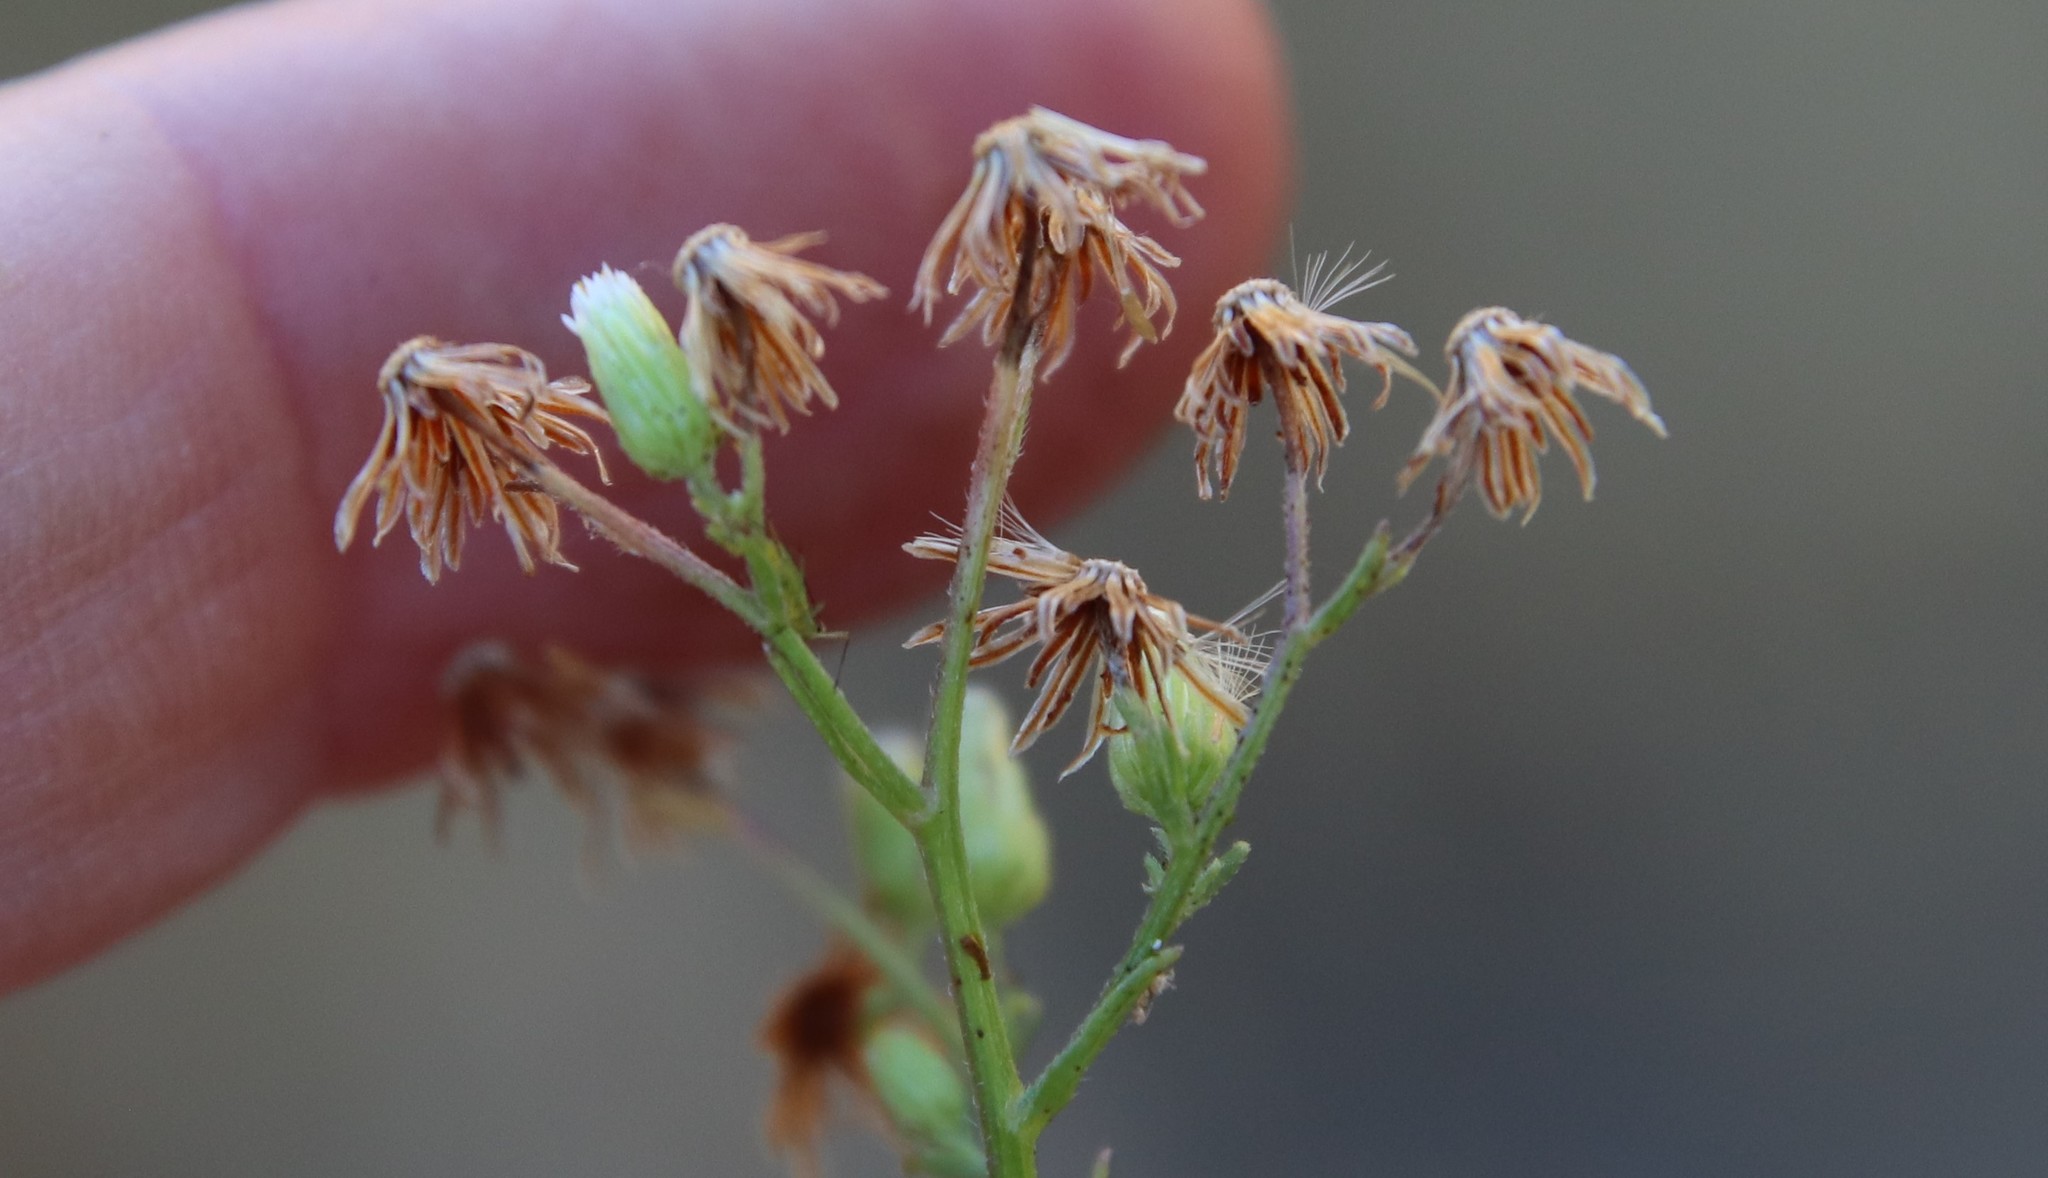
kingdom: Plantae
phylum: Tracheophyta
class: Magnoliopsida
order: Asterales
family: Asteraceae
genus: Erigeron
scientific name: Erigeron canadensis
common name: Canadian fleabane
